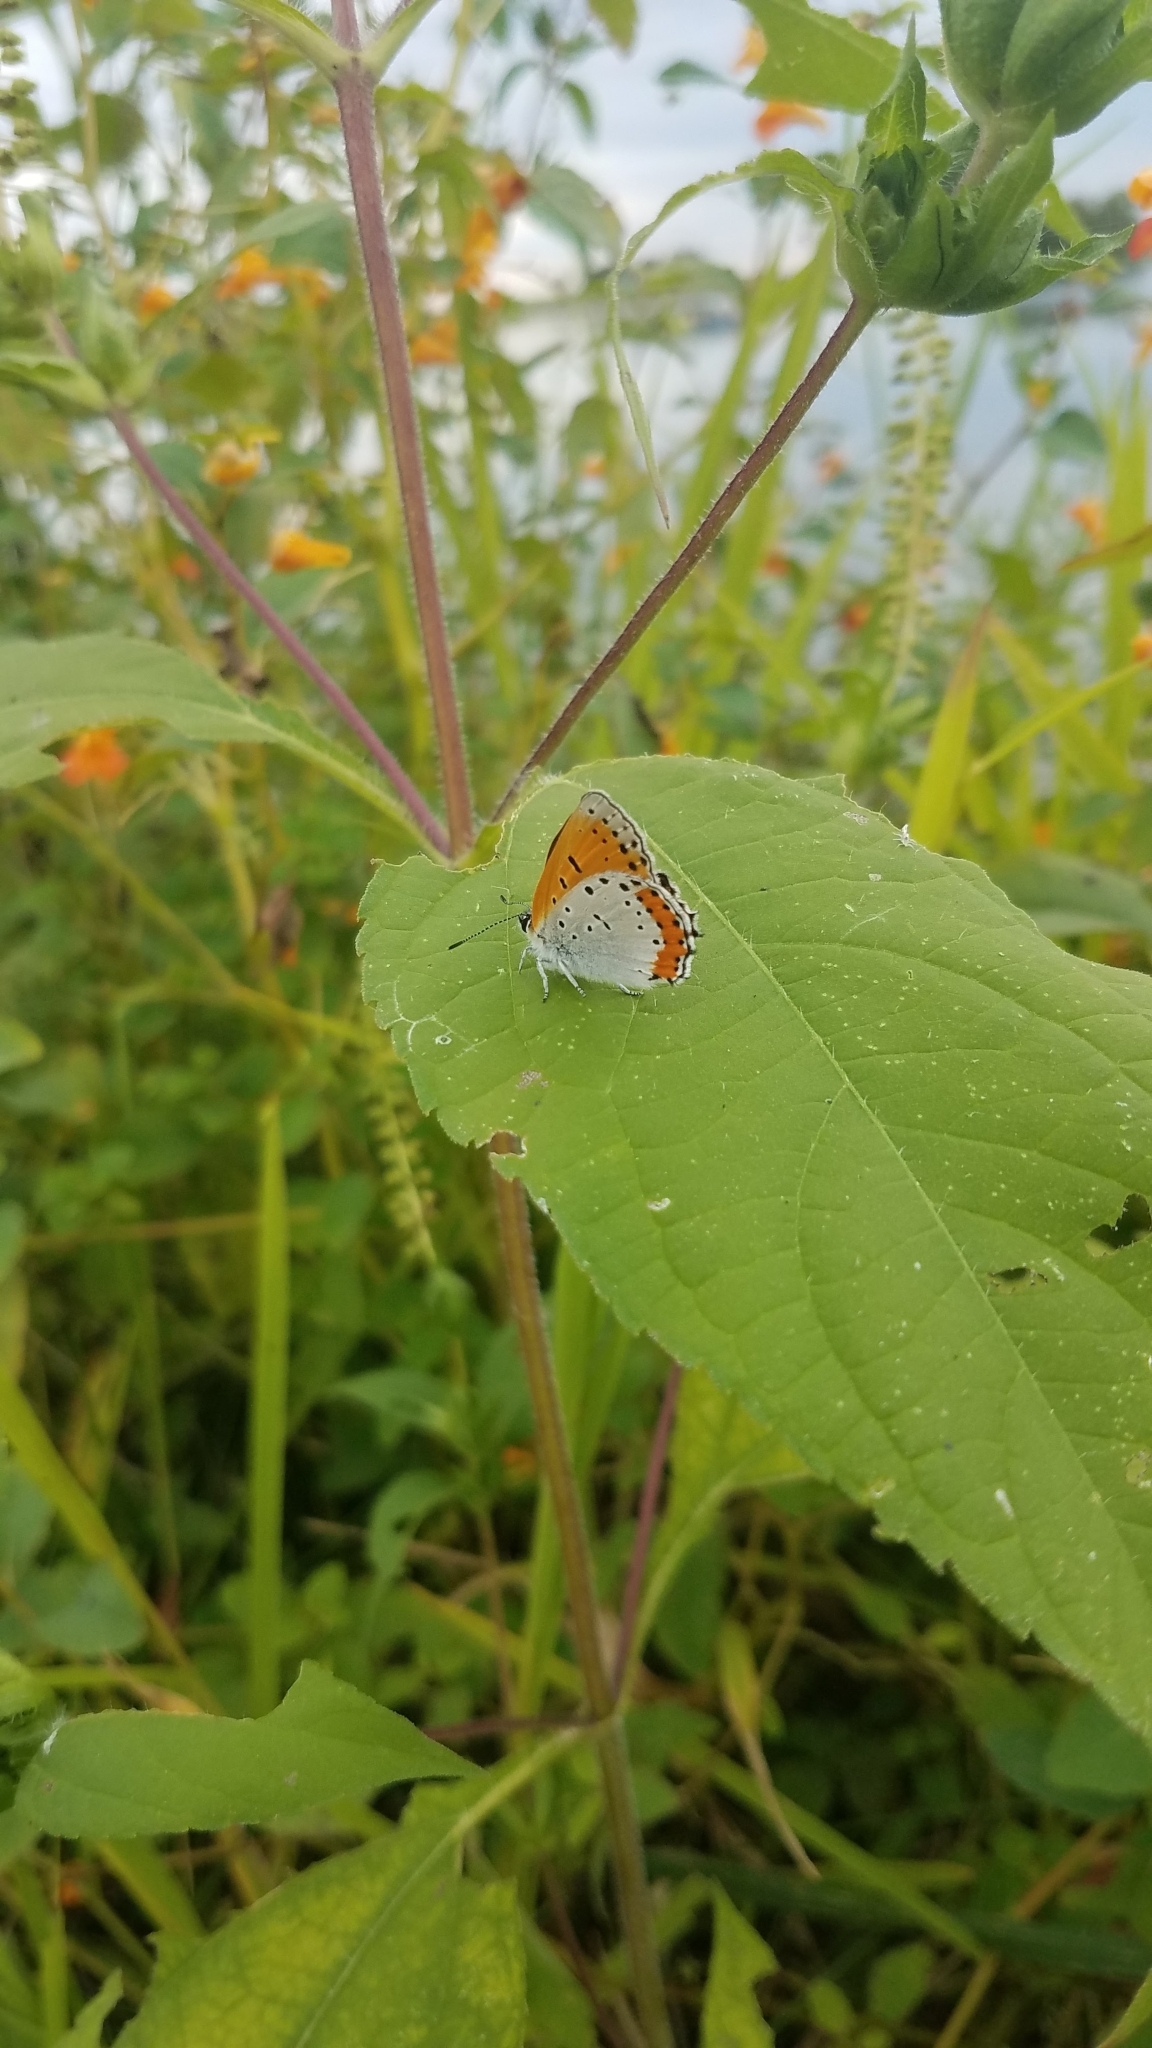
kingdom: Animalia
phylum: Arthropoda
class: Insecta
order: Lepidoptera
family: Lycaenidae
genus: Tharsalea
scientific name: Tharsalea hyllus
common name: Bronze copper
